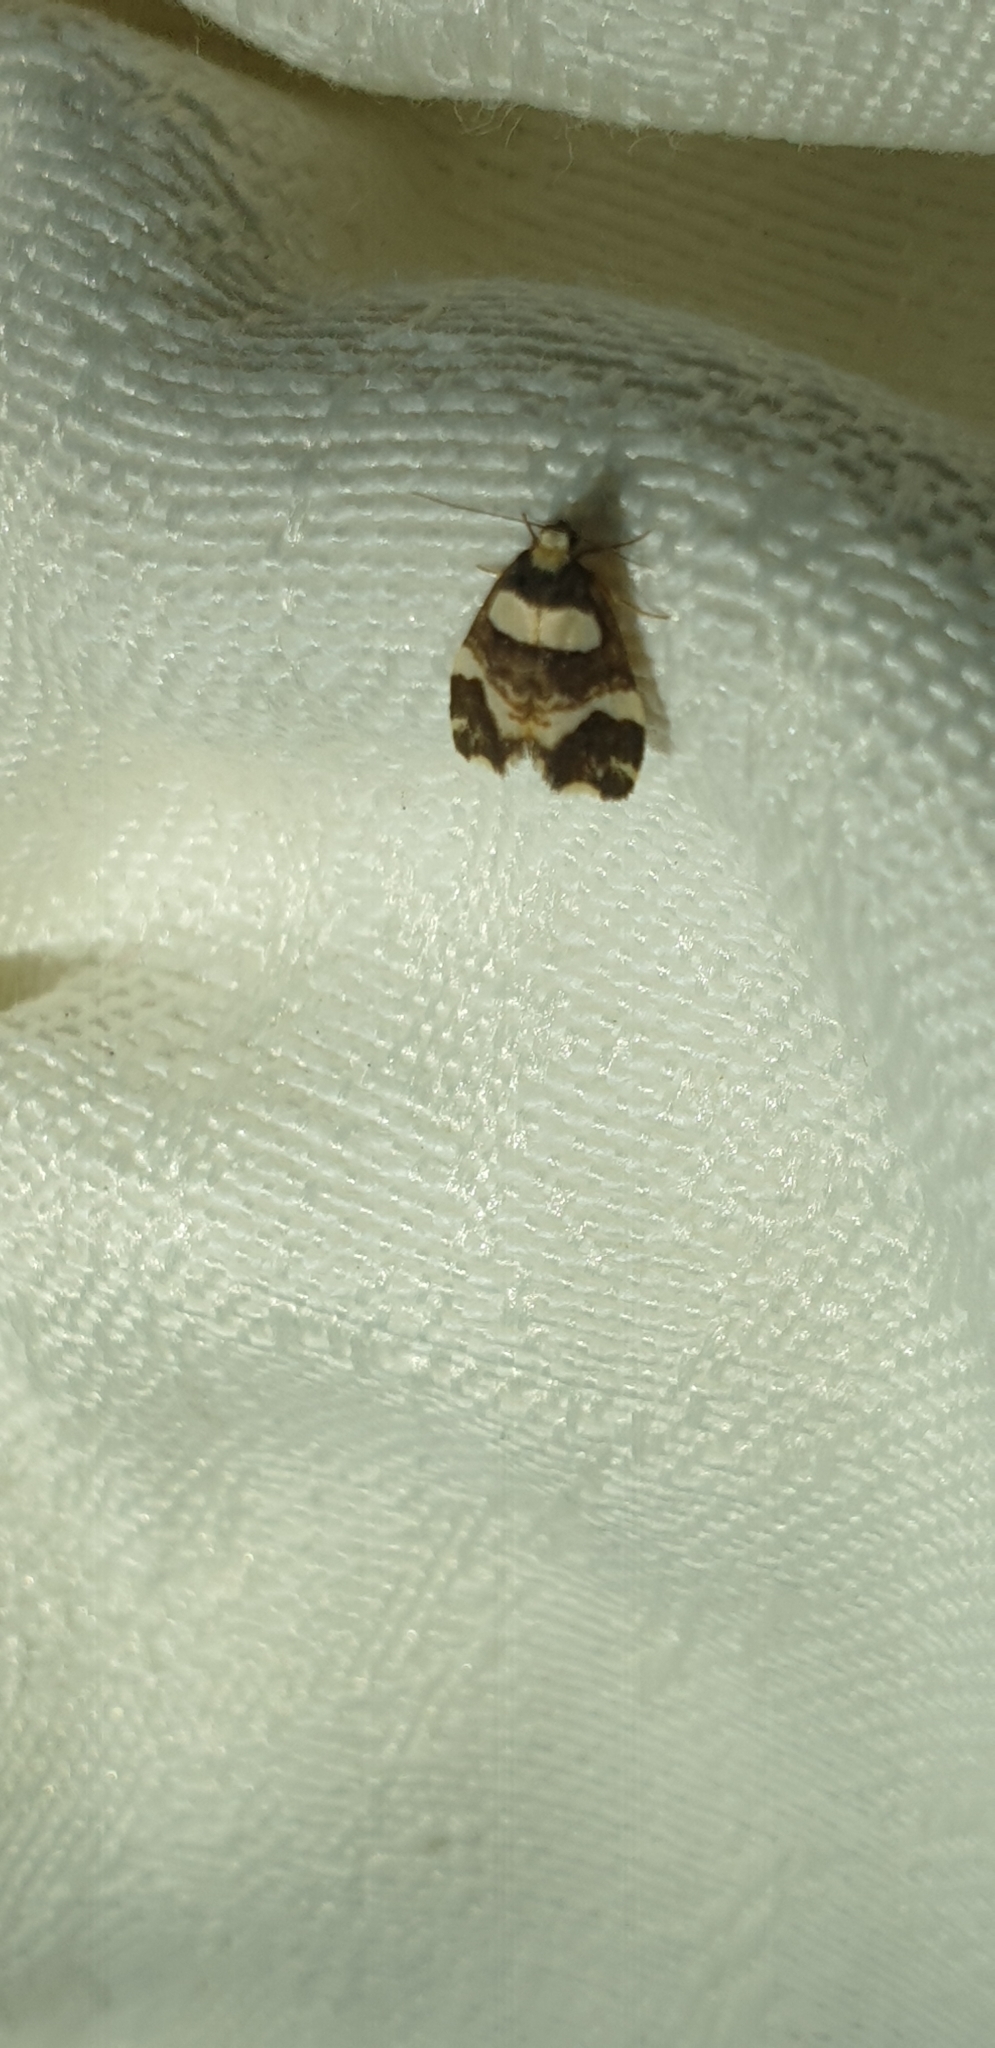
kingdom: Animalia
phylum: Arthropoda
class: Insecta
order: Lepidoptera
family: Erebidae
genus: Thallarcha
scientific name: Thallarcha phalarota
